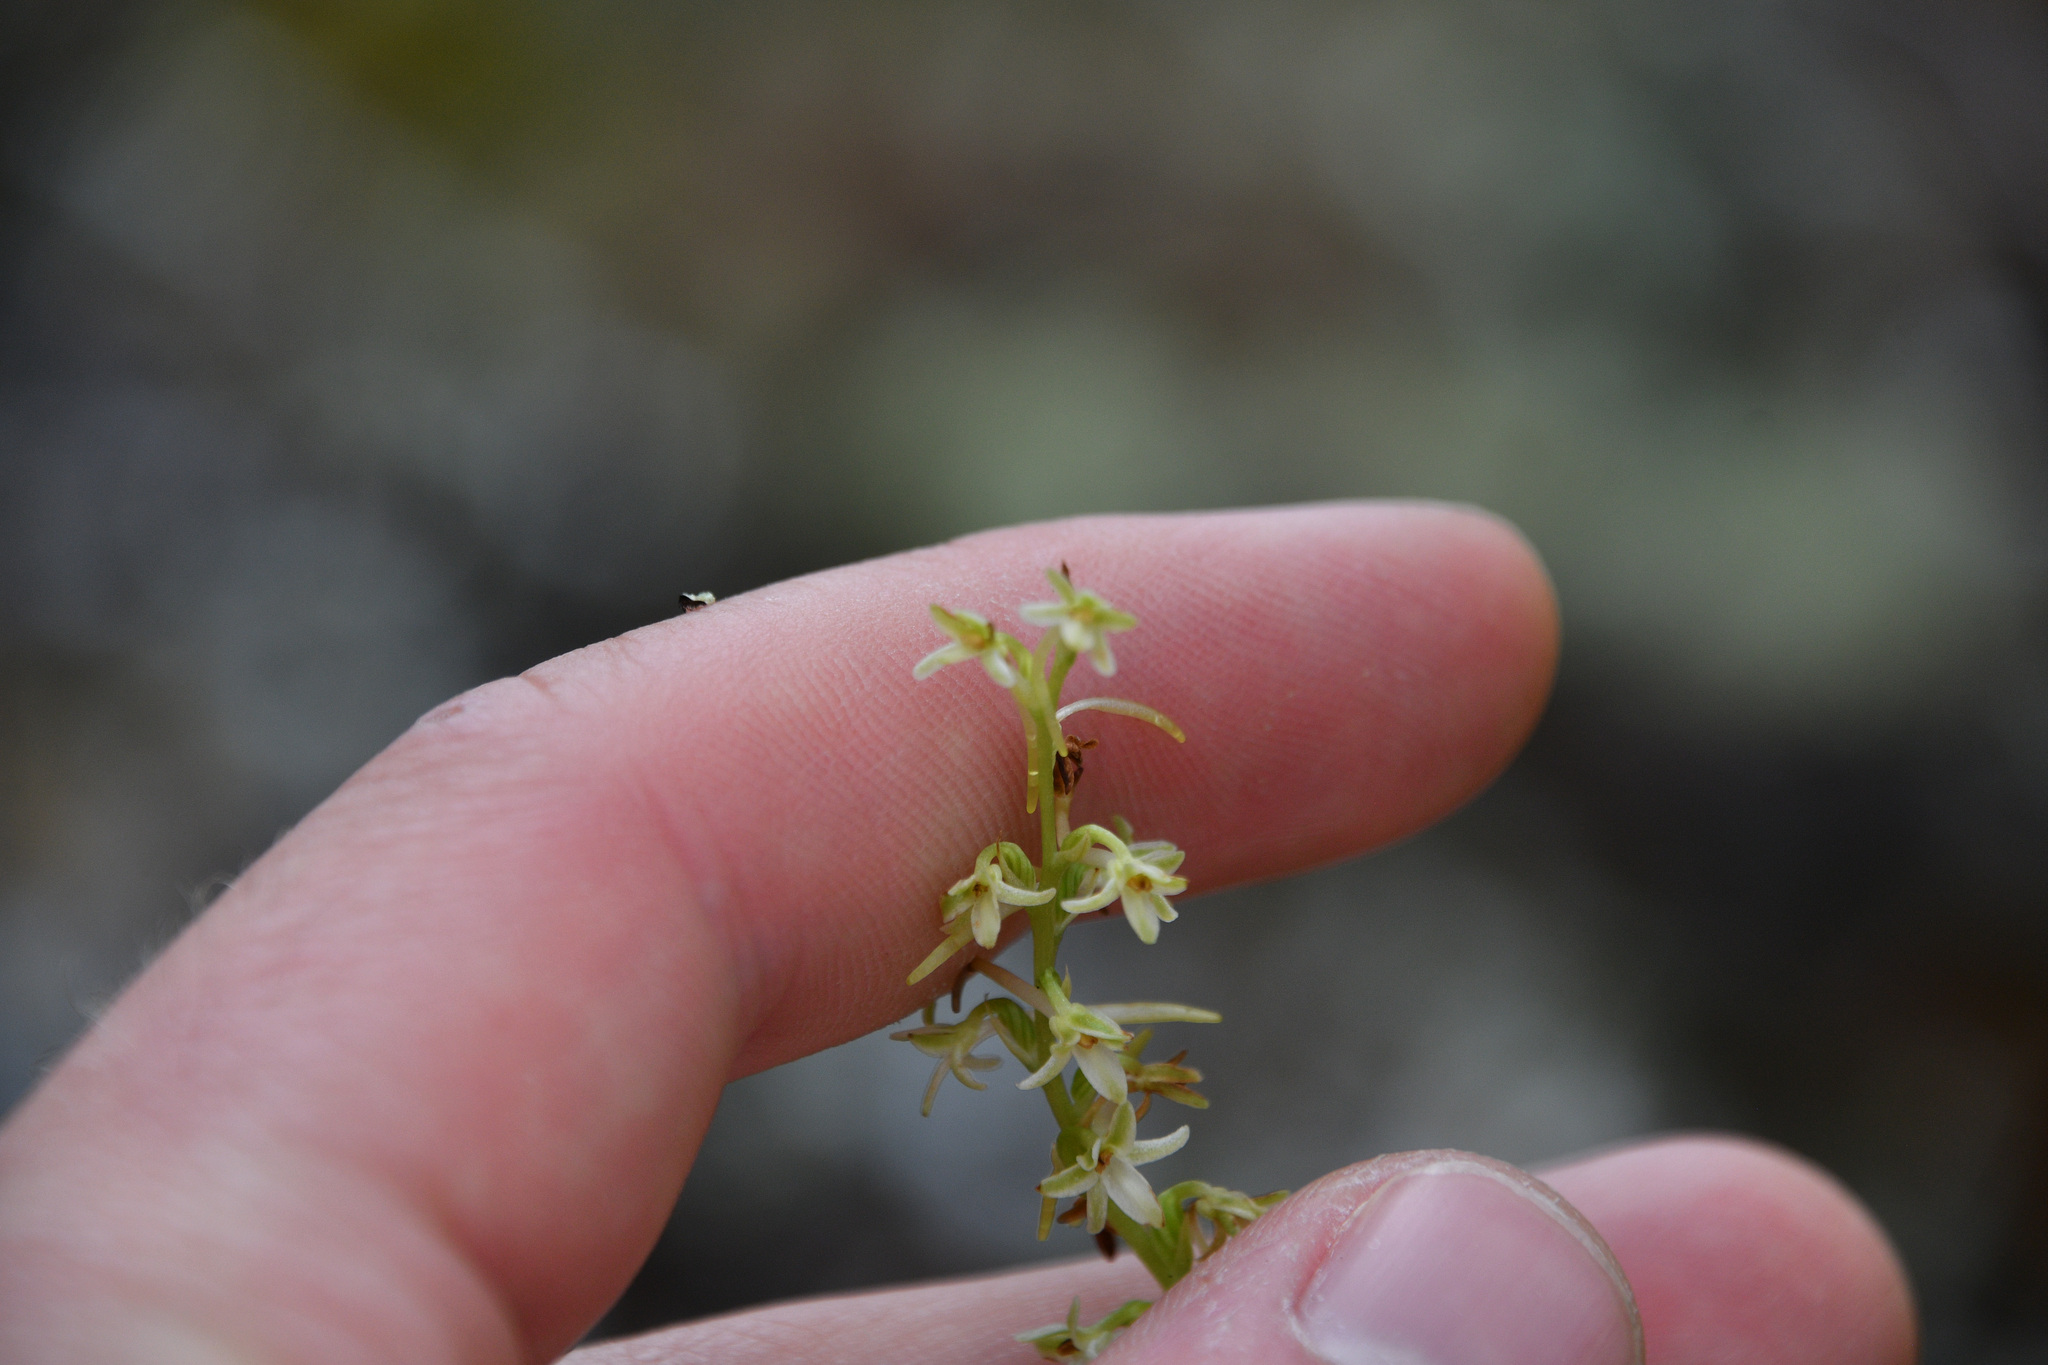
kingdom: Plantae
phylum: Tracheophyta
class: Liliopsida
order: Asparagales
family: Orchidaceae
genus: Platanthera
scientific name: Platanthera transversa
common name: Royal rein orchid
